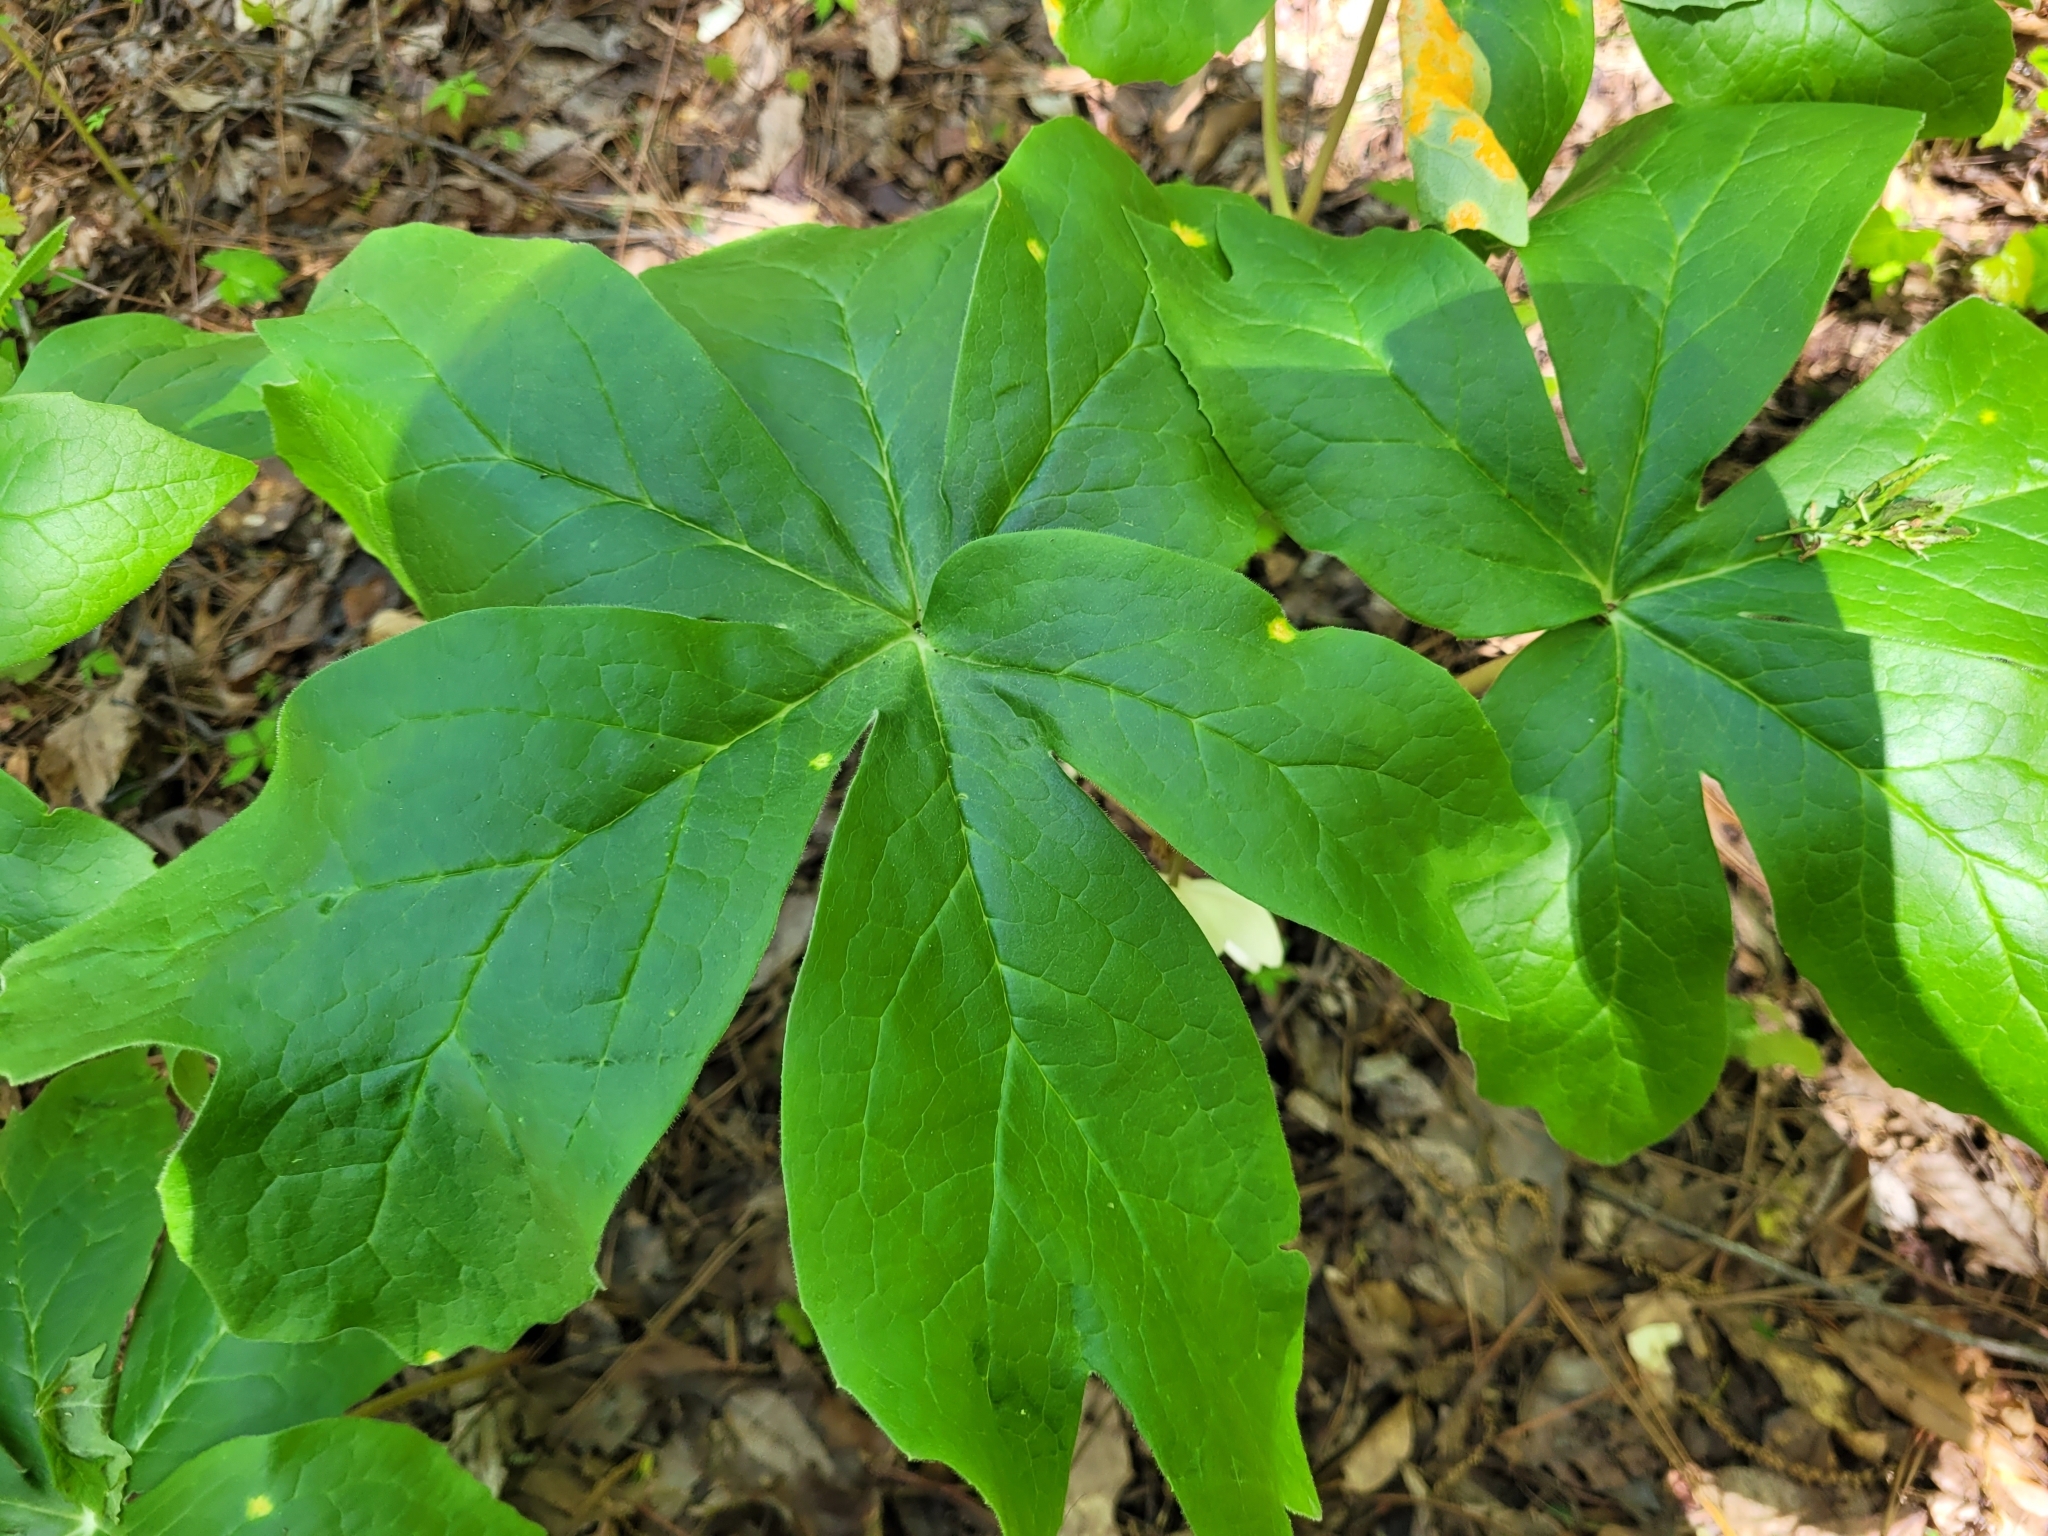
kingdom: Plantae
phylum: Tracheophyta
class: Magnoliopsida
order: Ranunculales
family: Berberidaceae
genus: Podophyllum
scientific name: Podophyllum peltatum
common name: Wild mandrake
